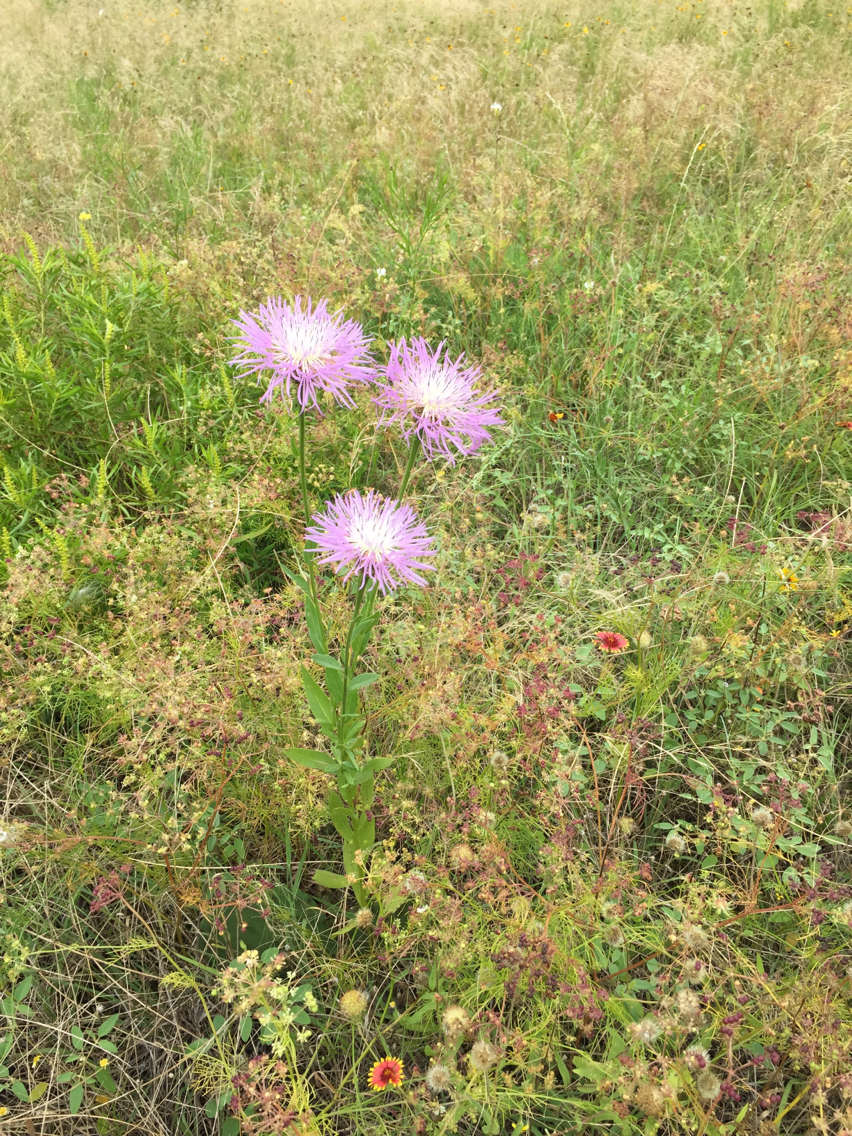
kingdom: Plantae
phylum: Tracheophyta
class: Magnoliopsida
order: Asterales
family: Asteraceae
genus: Plectocephalus
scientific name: Plectocephalus americanus
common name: American basket-flower
